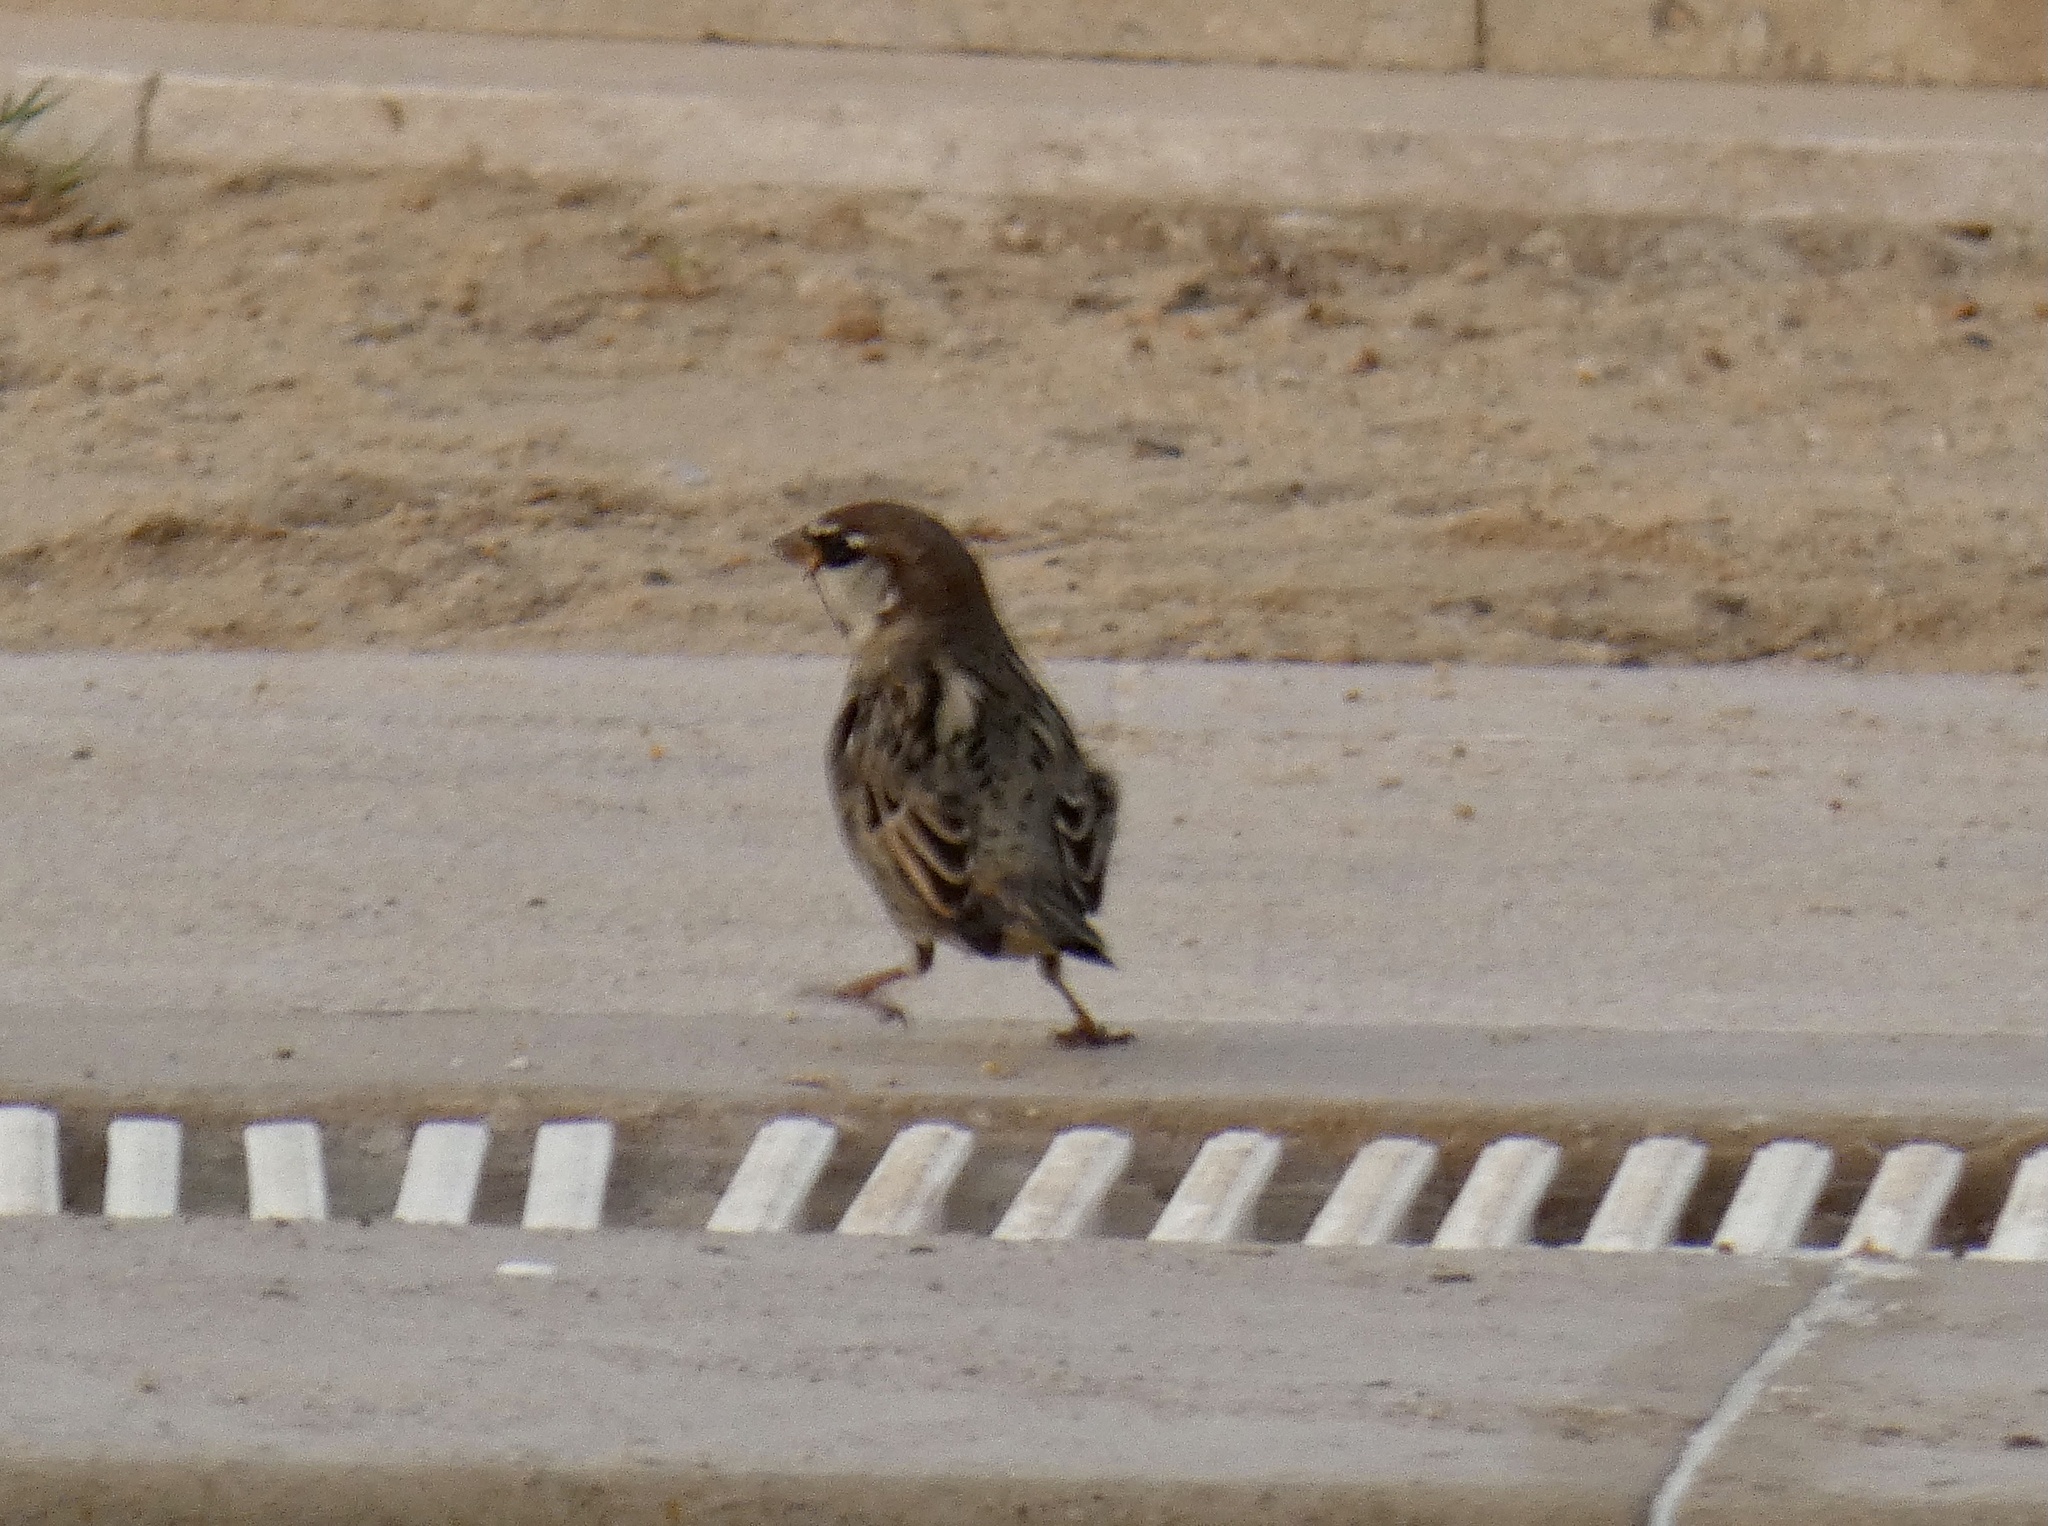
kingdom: Animalia
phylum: Chordata
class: Aves
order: Passeriformes
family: Passeridae
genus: Passer
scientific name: Passer domesticus
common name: House sparrow
